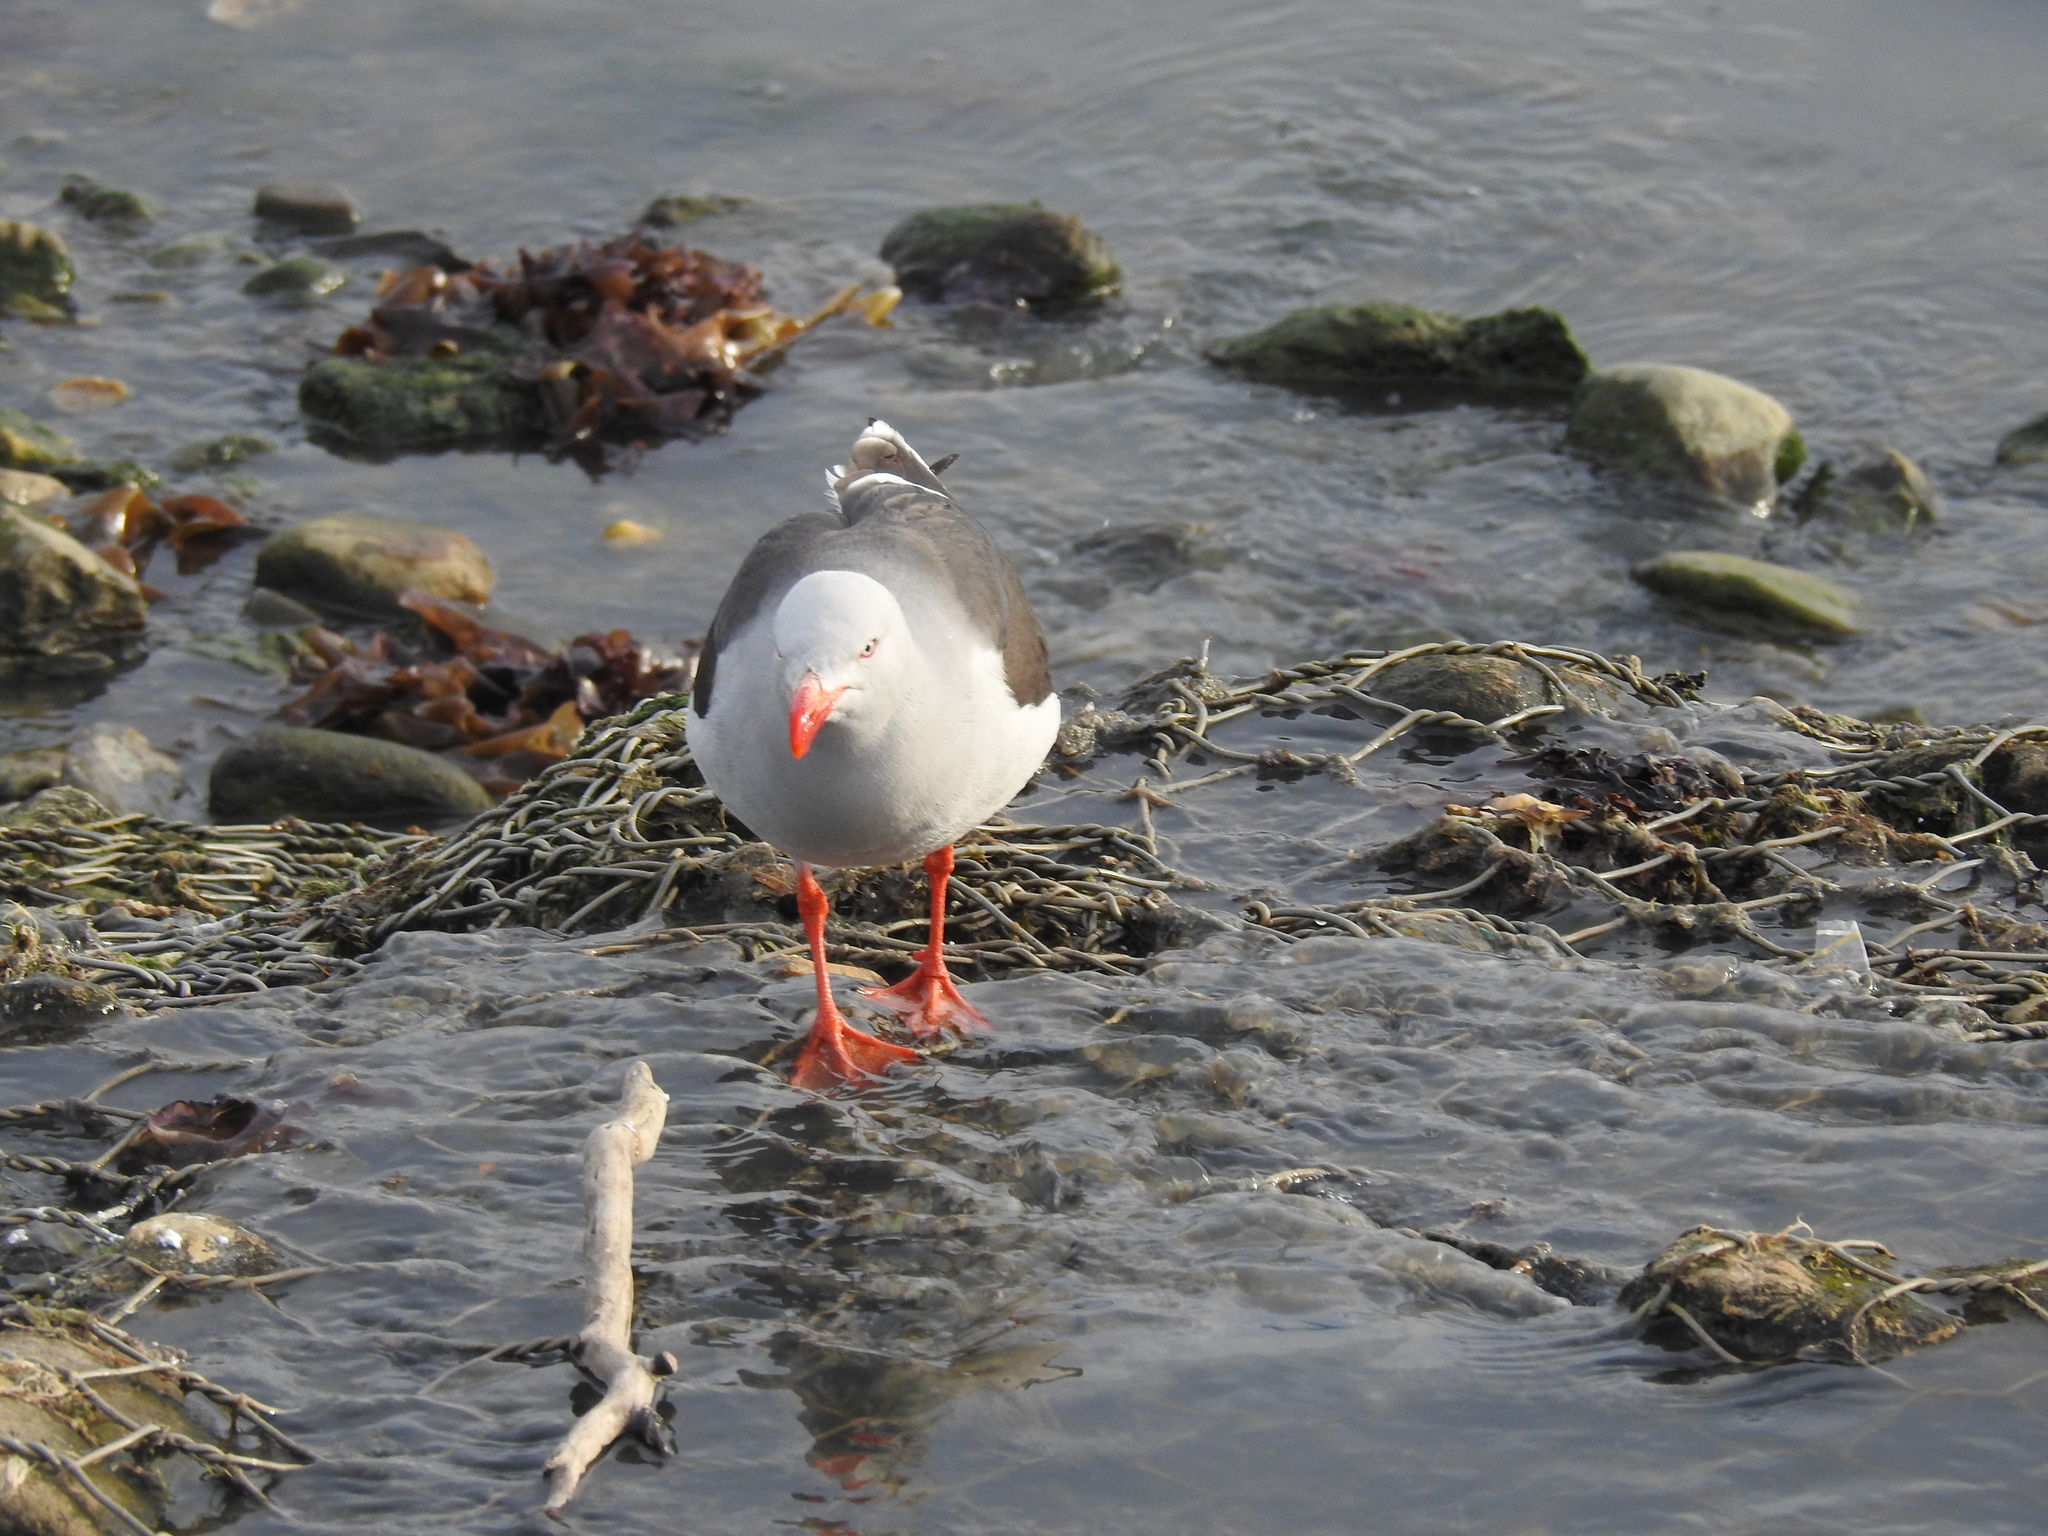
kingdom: Animalia
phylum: Chordata
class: Aves
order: Charadriiformes
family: Laridae
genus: Leucophaeus
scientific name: Leucophaeus scoresbii
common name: Dolphin gull
